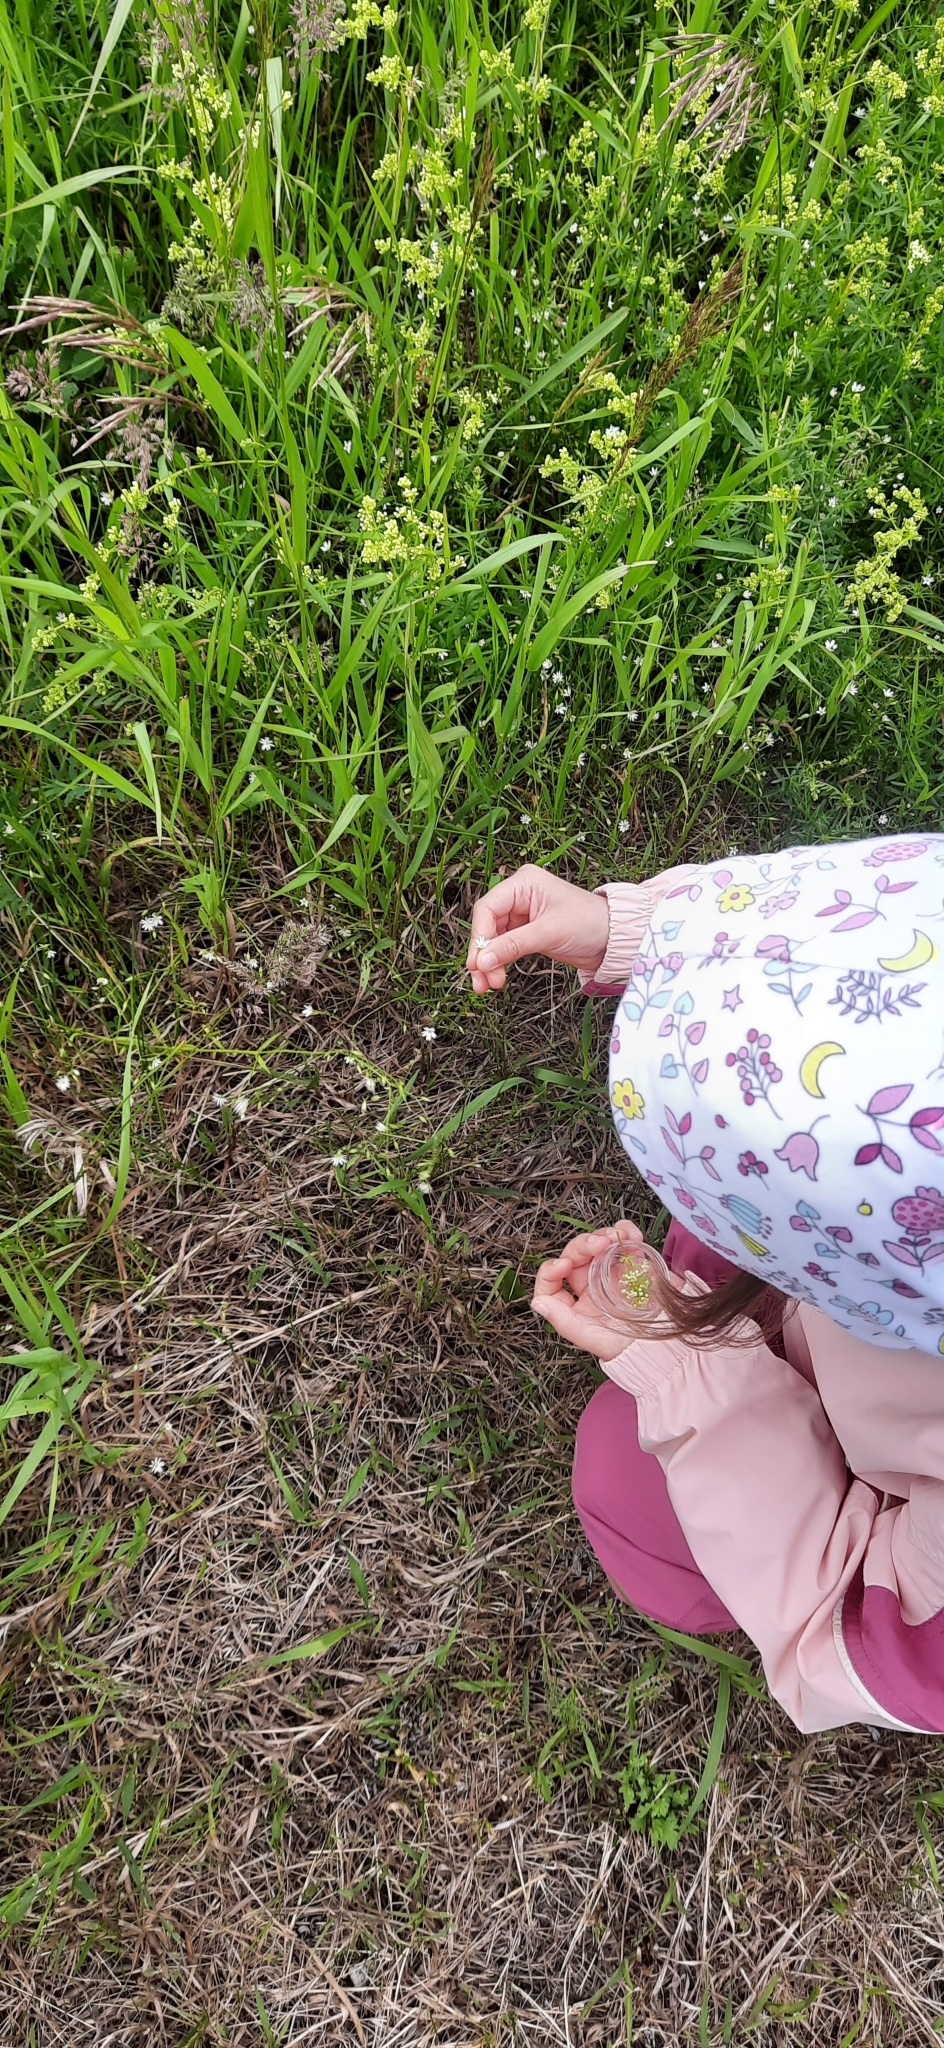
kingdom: Plantae
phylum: Tracheophyta
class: Magnoliopsida
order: Caryophyllales
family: Caryophyllaceae
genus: Stellaria
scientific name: Stellaria graminea
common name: Grass-like starwort
